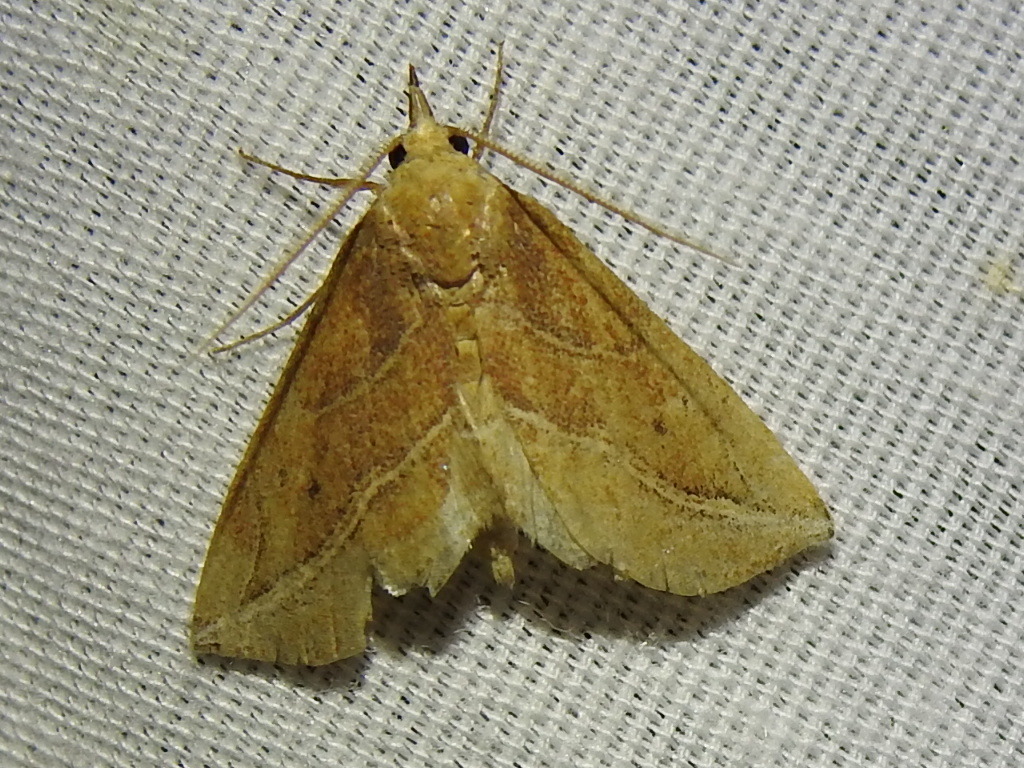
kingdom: Animalia
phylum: Arthropoda
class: Insecta
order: Lepidoptera
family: Erebidae
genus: Phyprosopus
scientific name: Phyprosopus callitrichoides
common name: Curved-lined owlet
